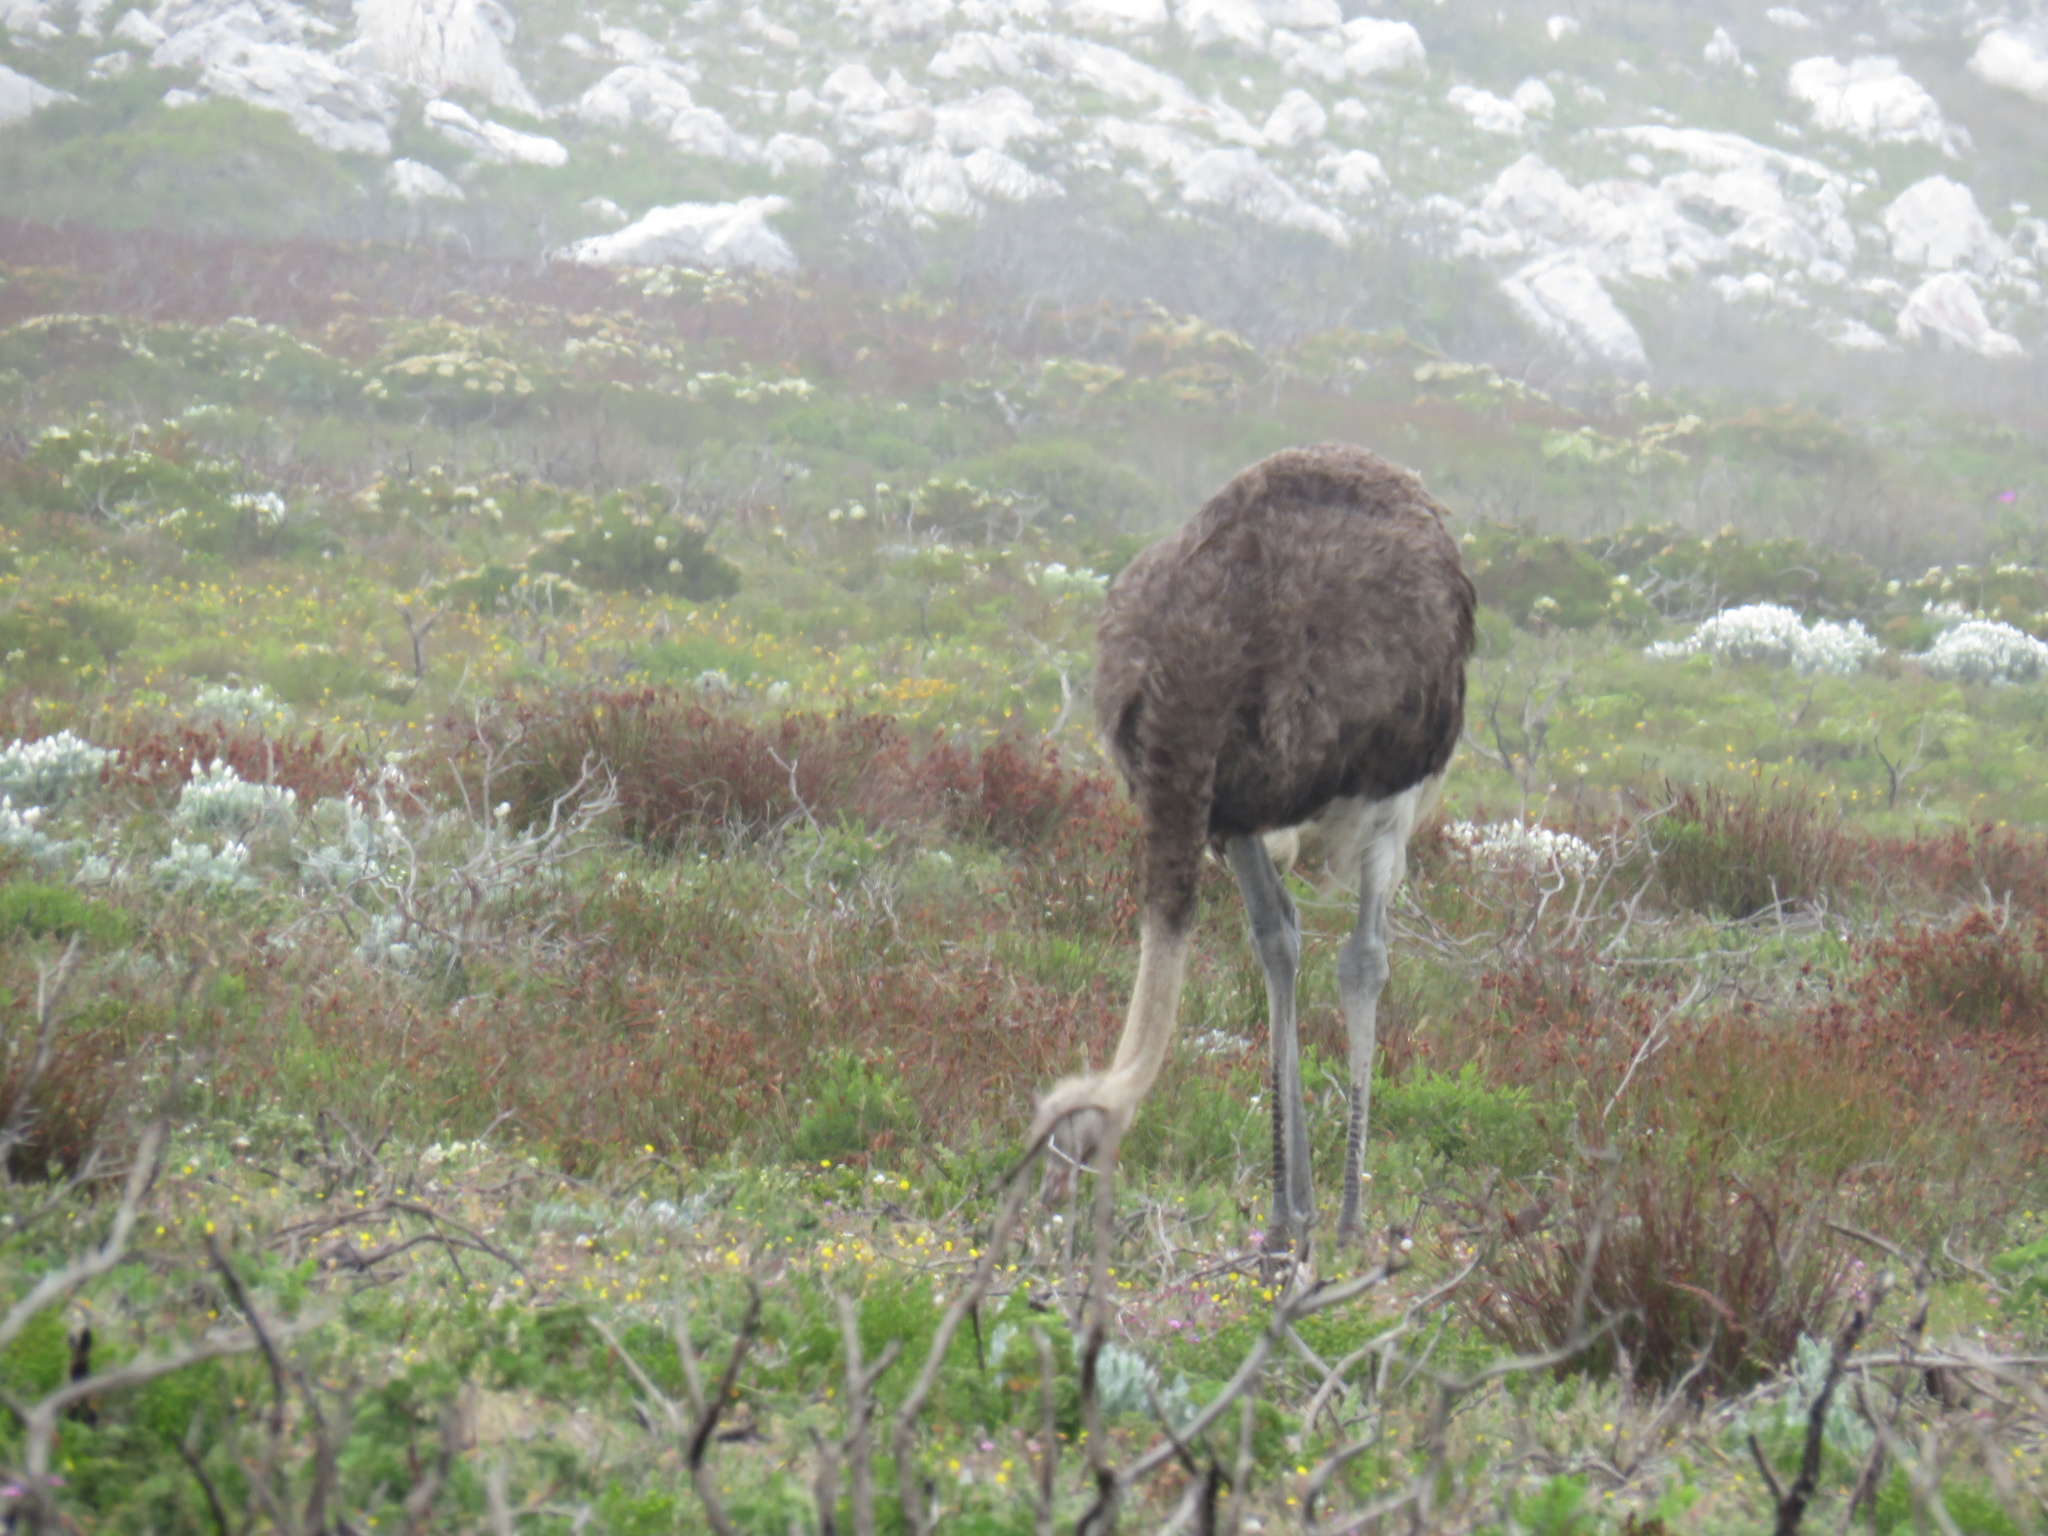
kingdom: Animalia
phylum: Chordata
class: Aves
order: Struthioniformes
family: Struthionidae
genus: Struthio
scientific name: Struthio camelus
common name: Common ostrich
